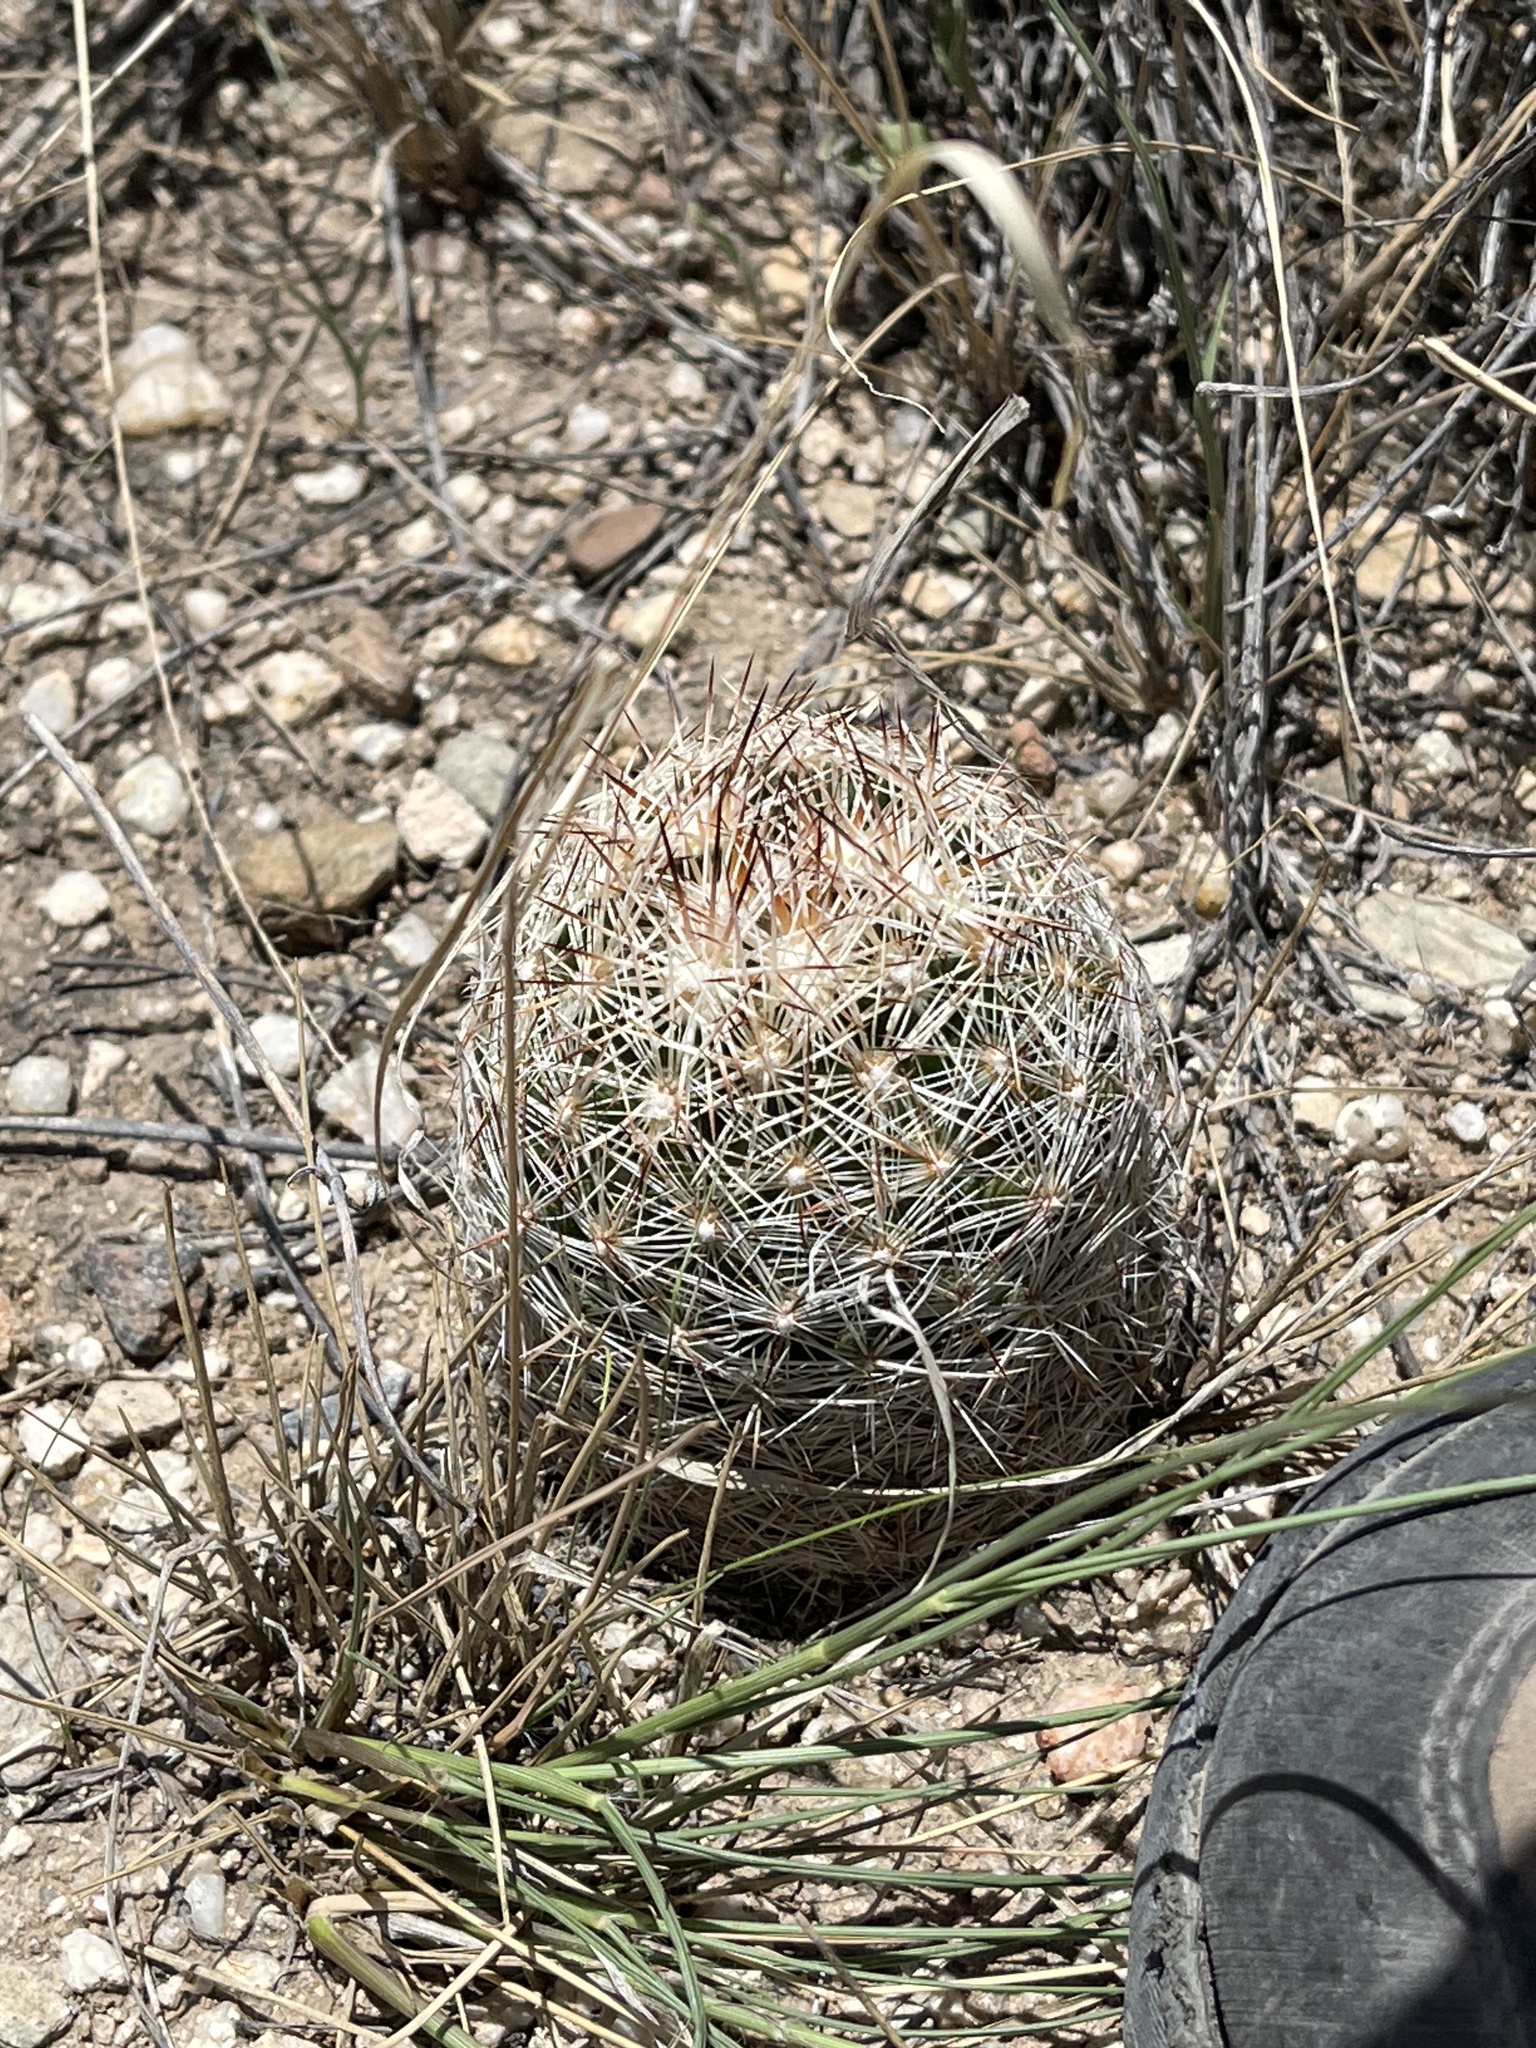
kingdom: Plantae
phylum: Tracheophyta
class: Magnoliopsida
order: Caryophyllales
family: Cactaceae
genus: Pelecyphora
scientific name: Pelecyphora vivipara
